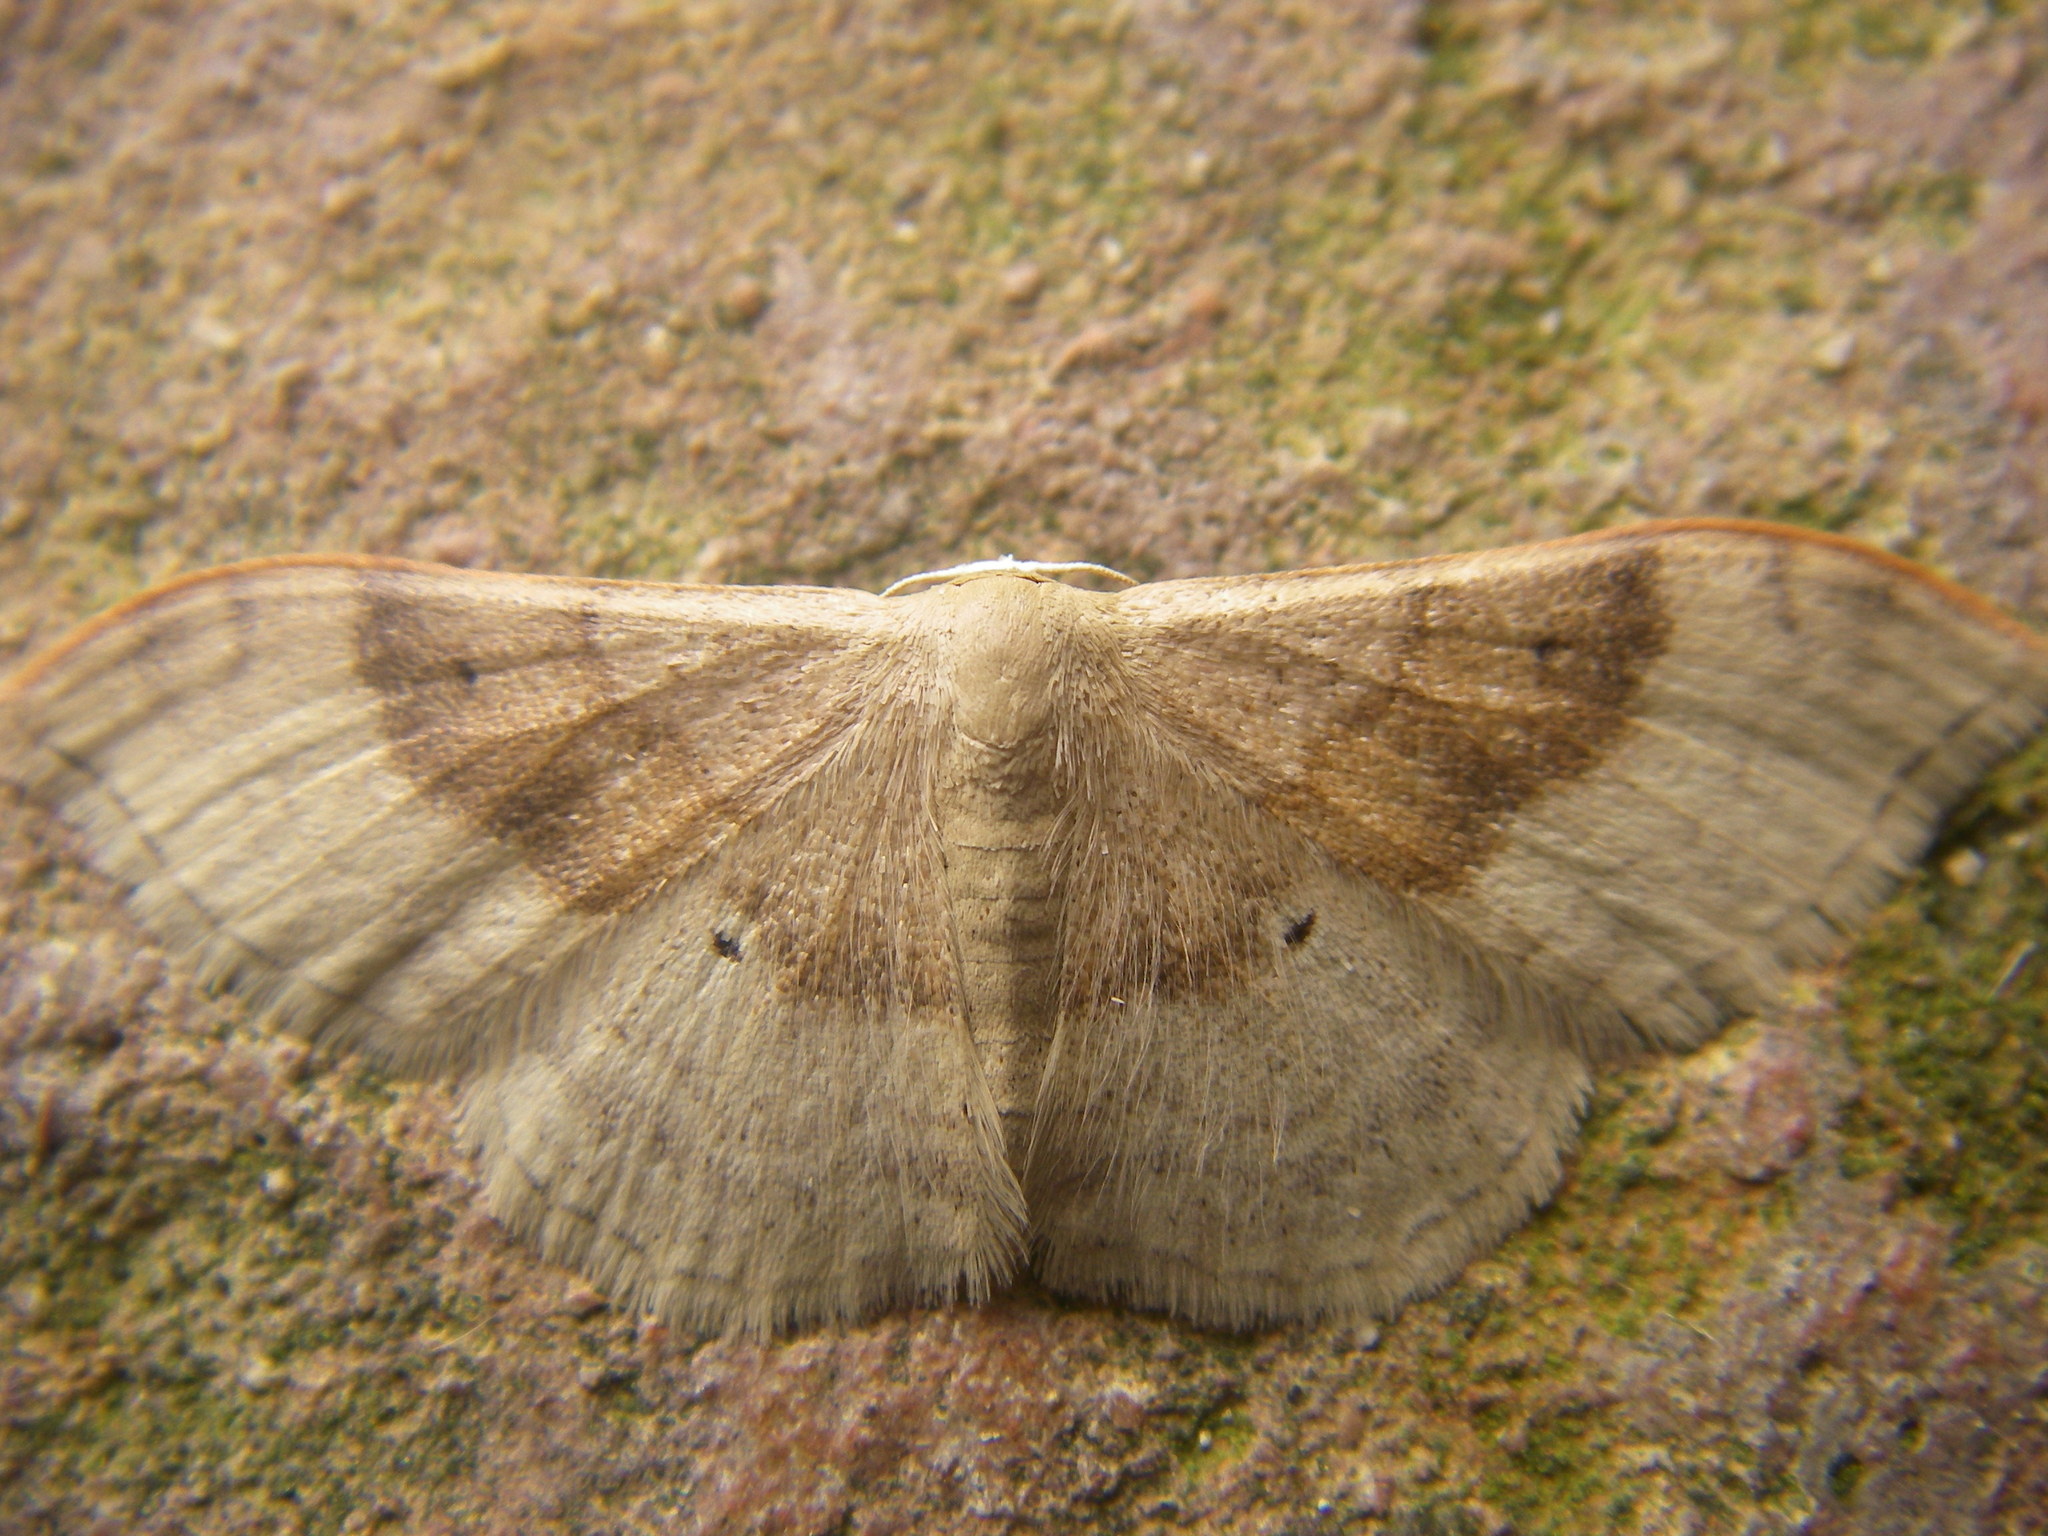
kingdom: Animalia
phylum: Arthropoda
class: Insecta
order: Lepidoptera
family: Geometridae
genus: Idaea
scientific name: Idaea degeneraria
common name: Portland ribbon wave
